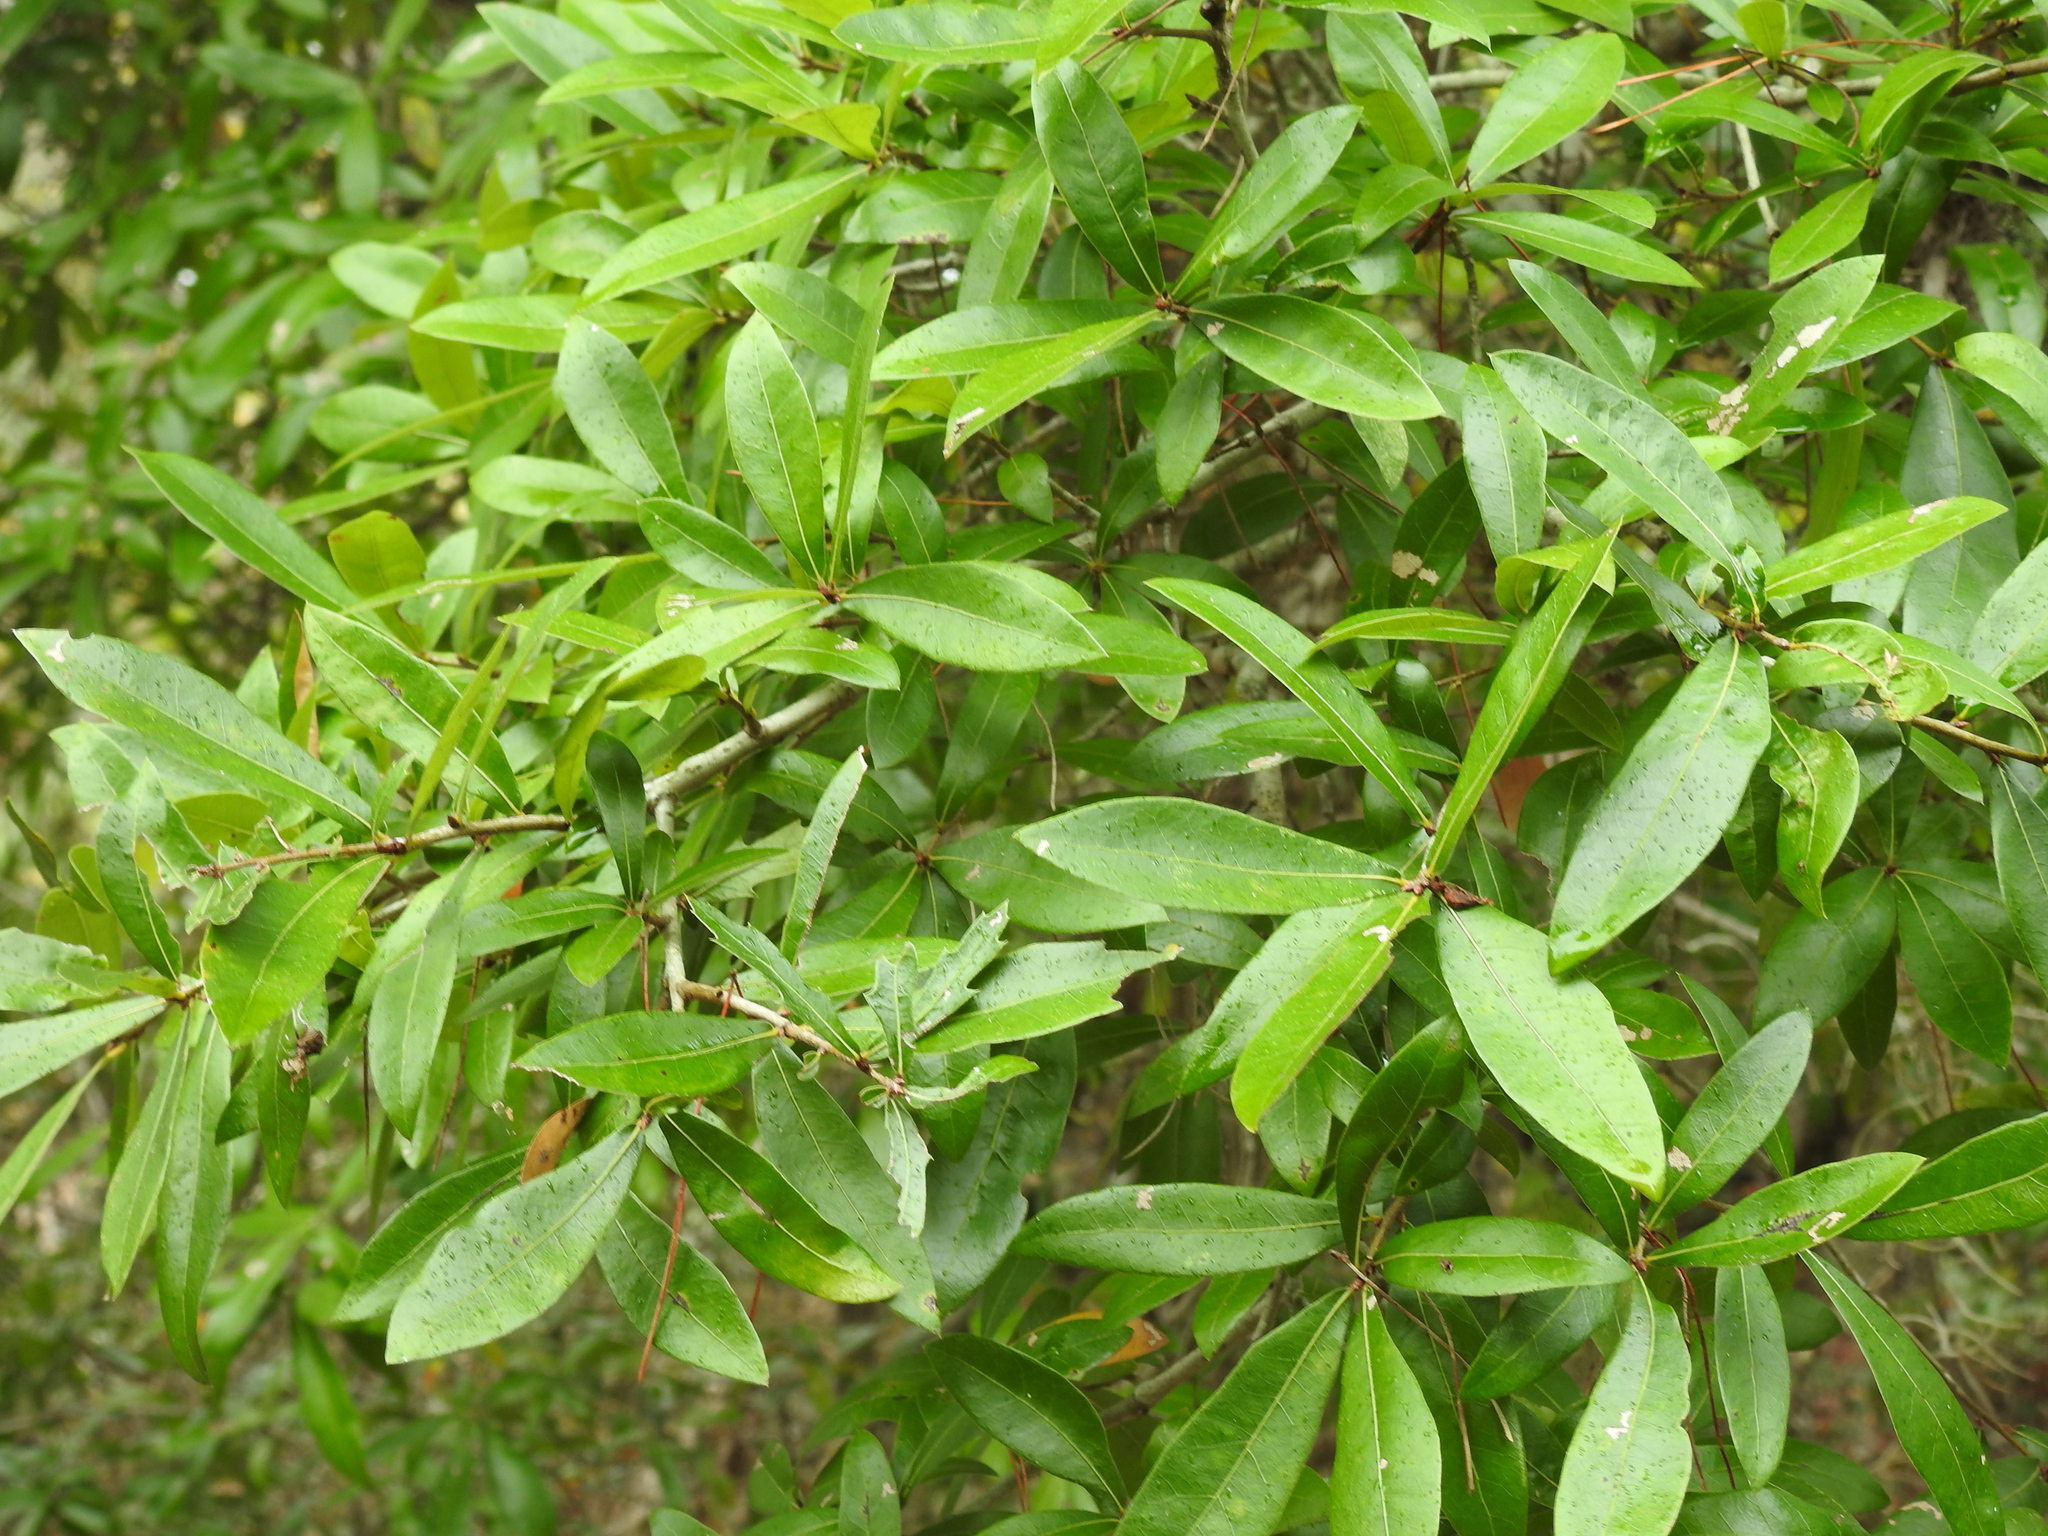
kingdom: Plantae
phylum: Tracheophyta
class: Magnoliopsida
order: Fagales
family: Fagaceae
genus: Quercus
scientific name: Quercus hemisphaerica
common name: Darlington oak
